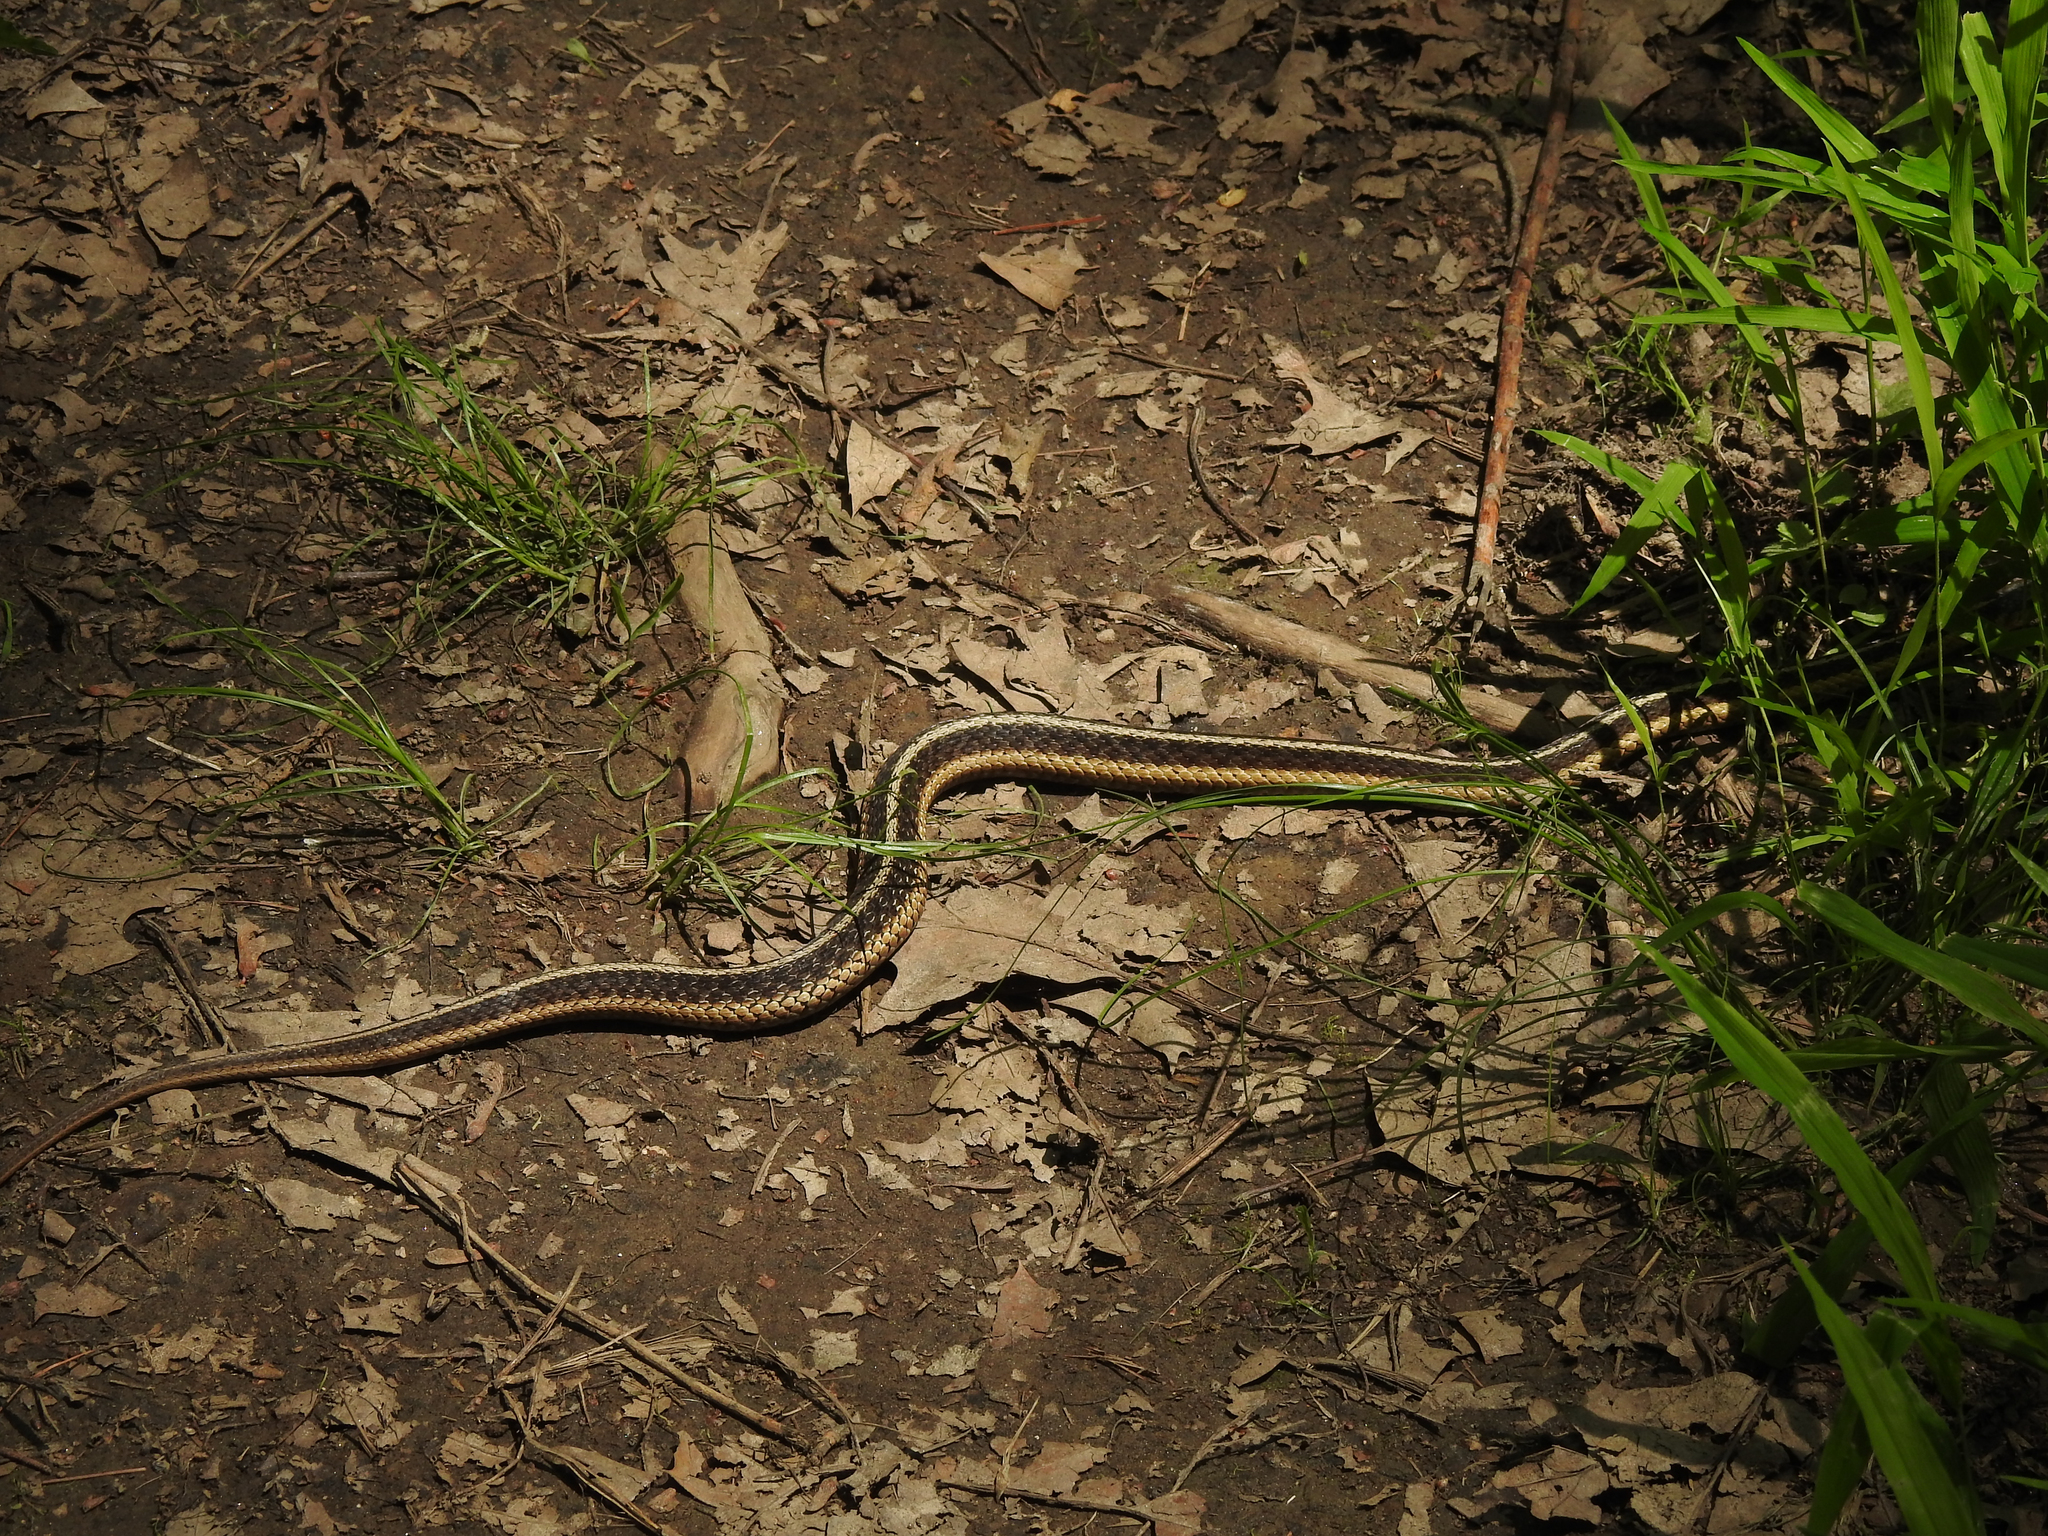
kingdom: Animalia
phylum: Chordata
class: Squamata
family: Colubridae
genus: Thamnophis
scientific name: Thamnophis sirtalis
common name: Common garter snake
